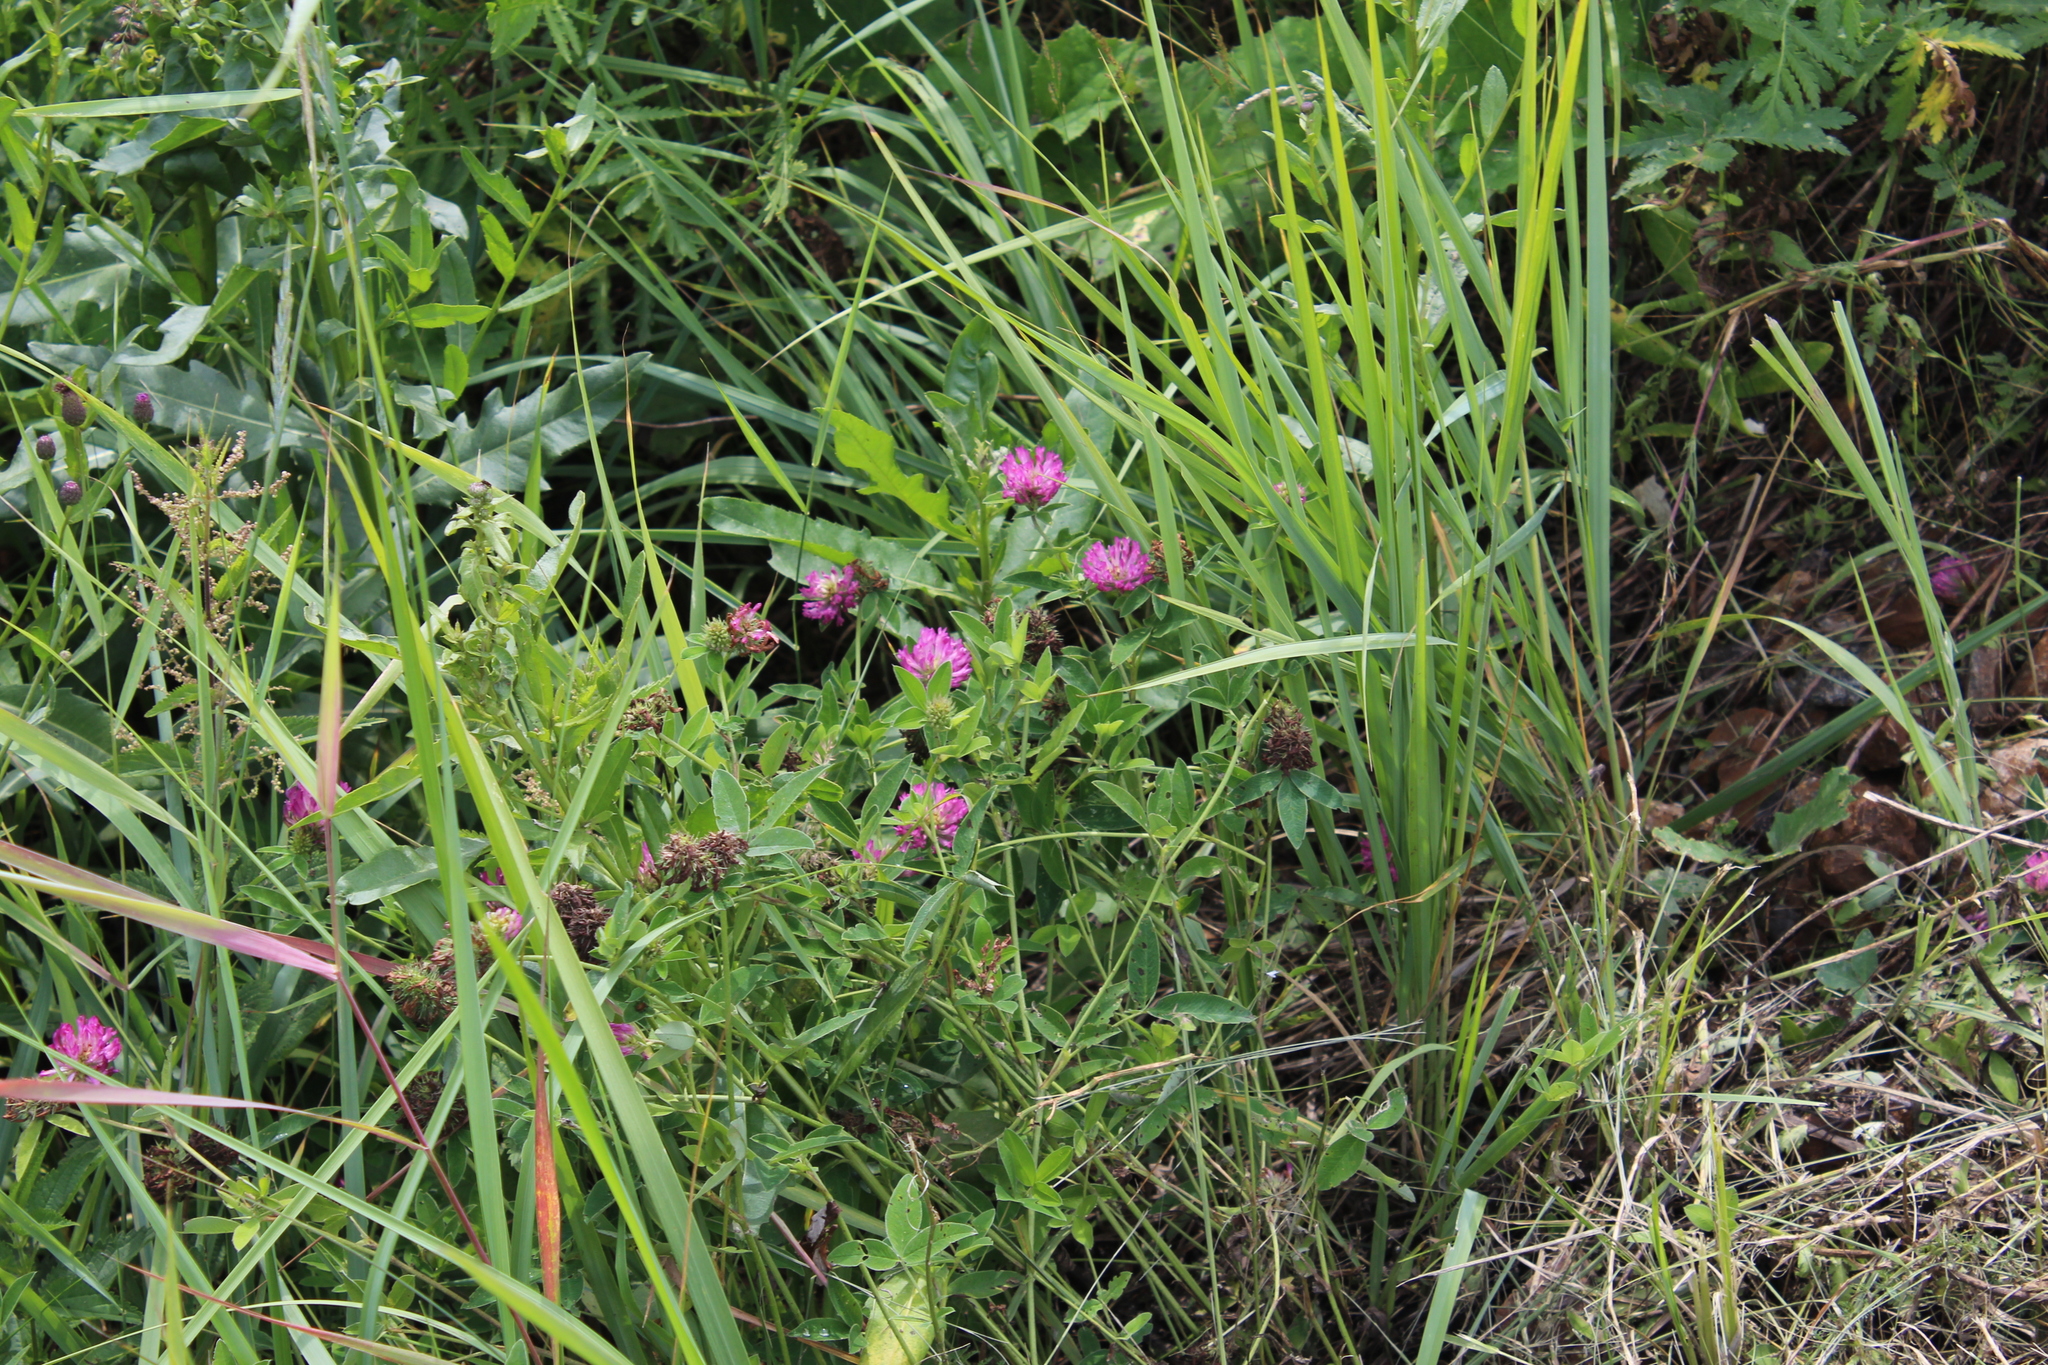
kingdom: Plantae
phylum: Tracheophyta
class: Magnoliopsida
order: Fabales
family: Fabaceae
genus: Trifolium
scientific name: Trifolium medium
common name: Zigzag clover
